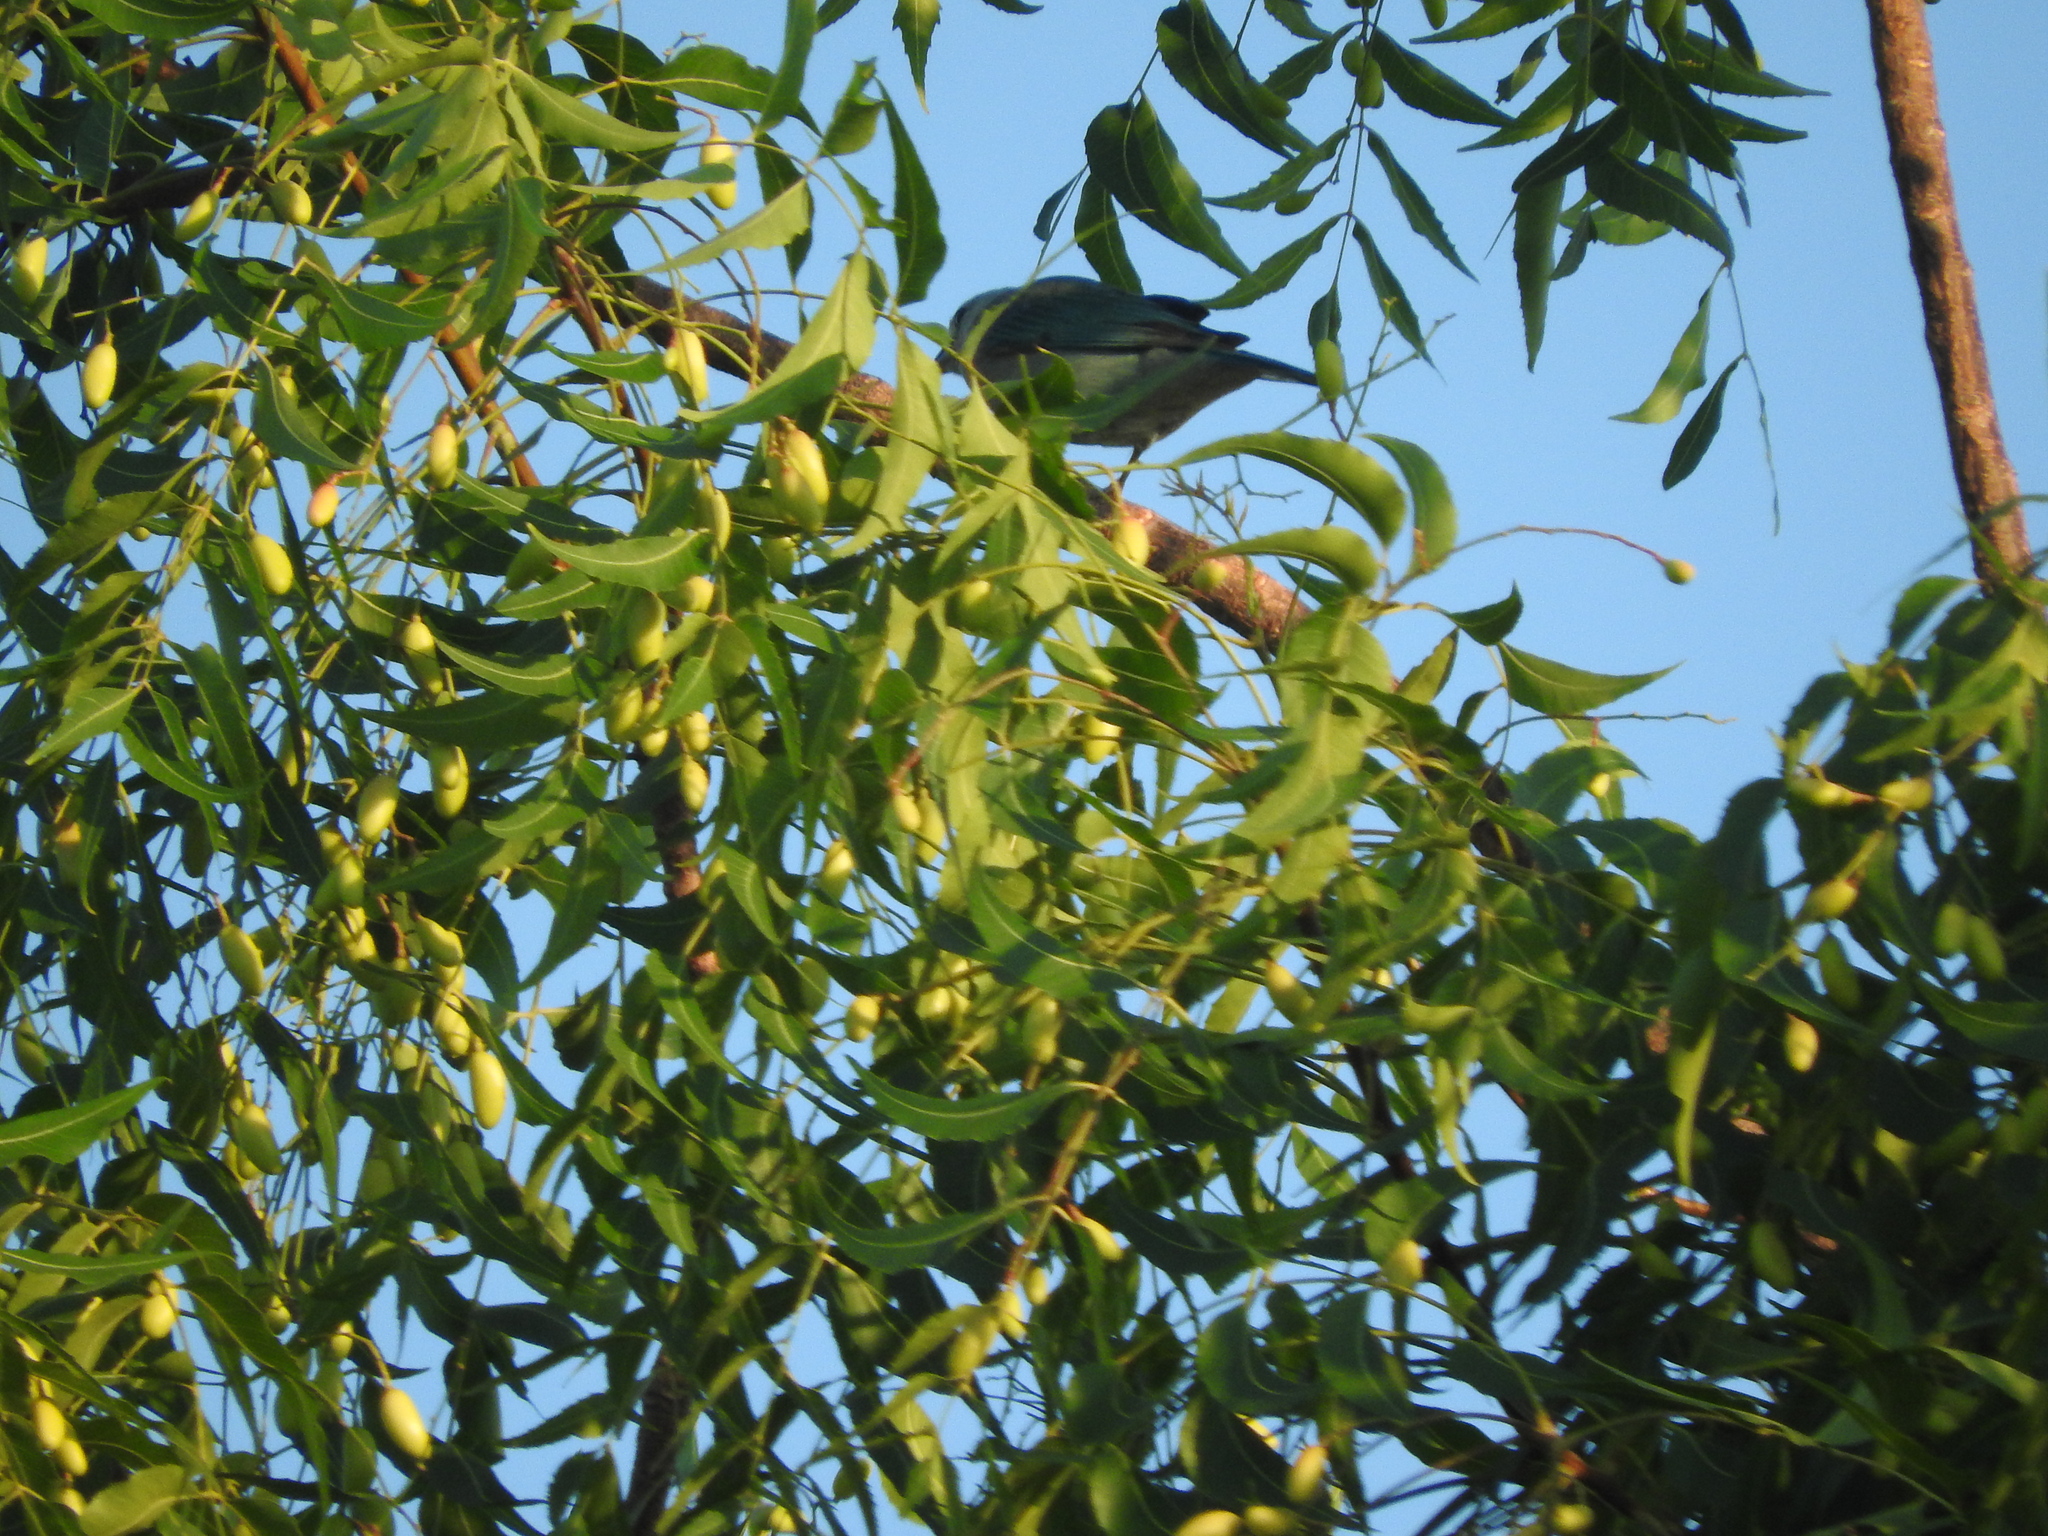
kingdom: Animalia
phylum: Chordata
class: Aves
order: Passeriformes
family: Thraupidae
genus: Thraupis
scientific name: Thraupis episcopus
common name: Blue-grey tanager
